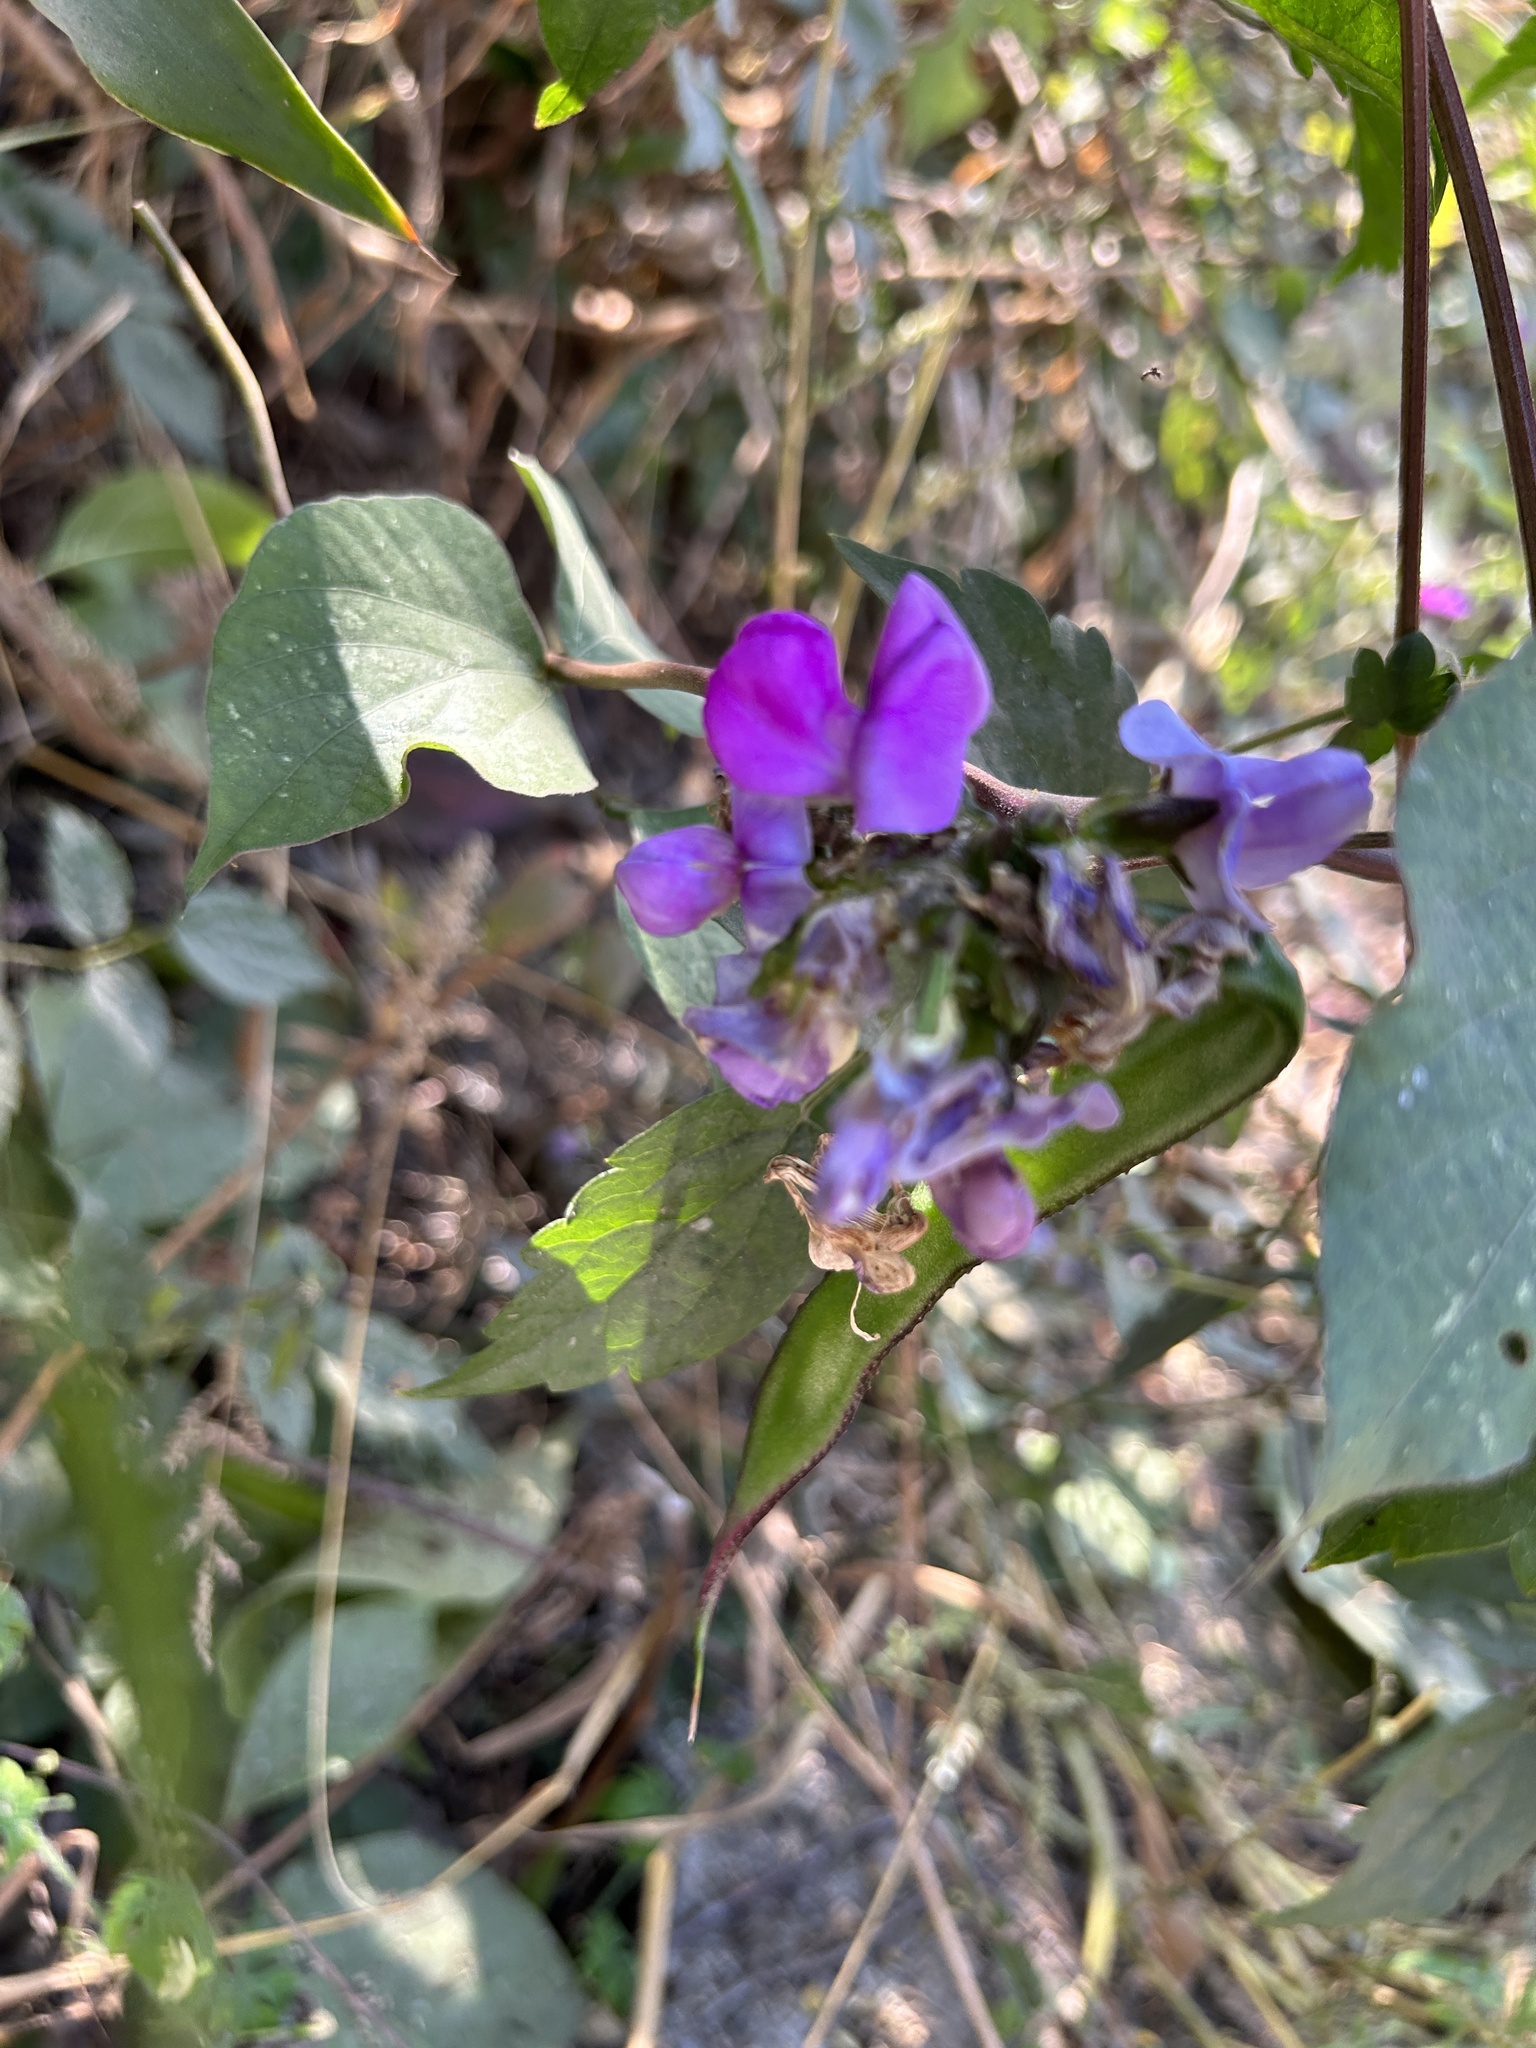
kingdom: Plantae
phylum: Tracheophyta
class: Magnoliopsida
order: Fabales
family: Fabaceae
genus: Lablab
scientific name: Lablab purpureus
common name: Lablab-bean
